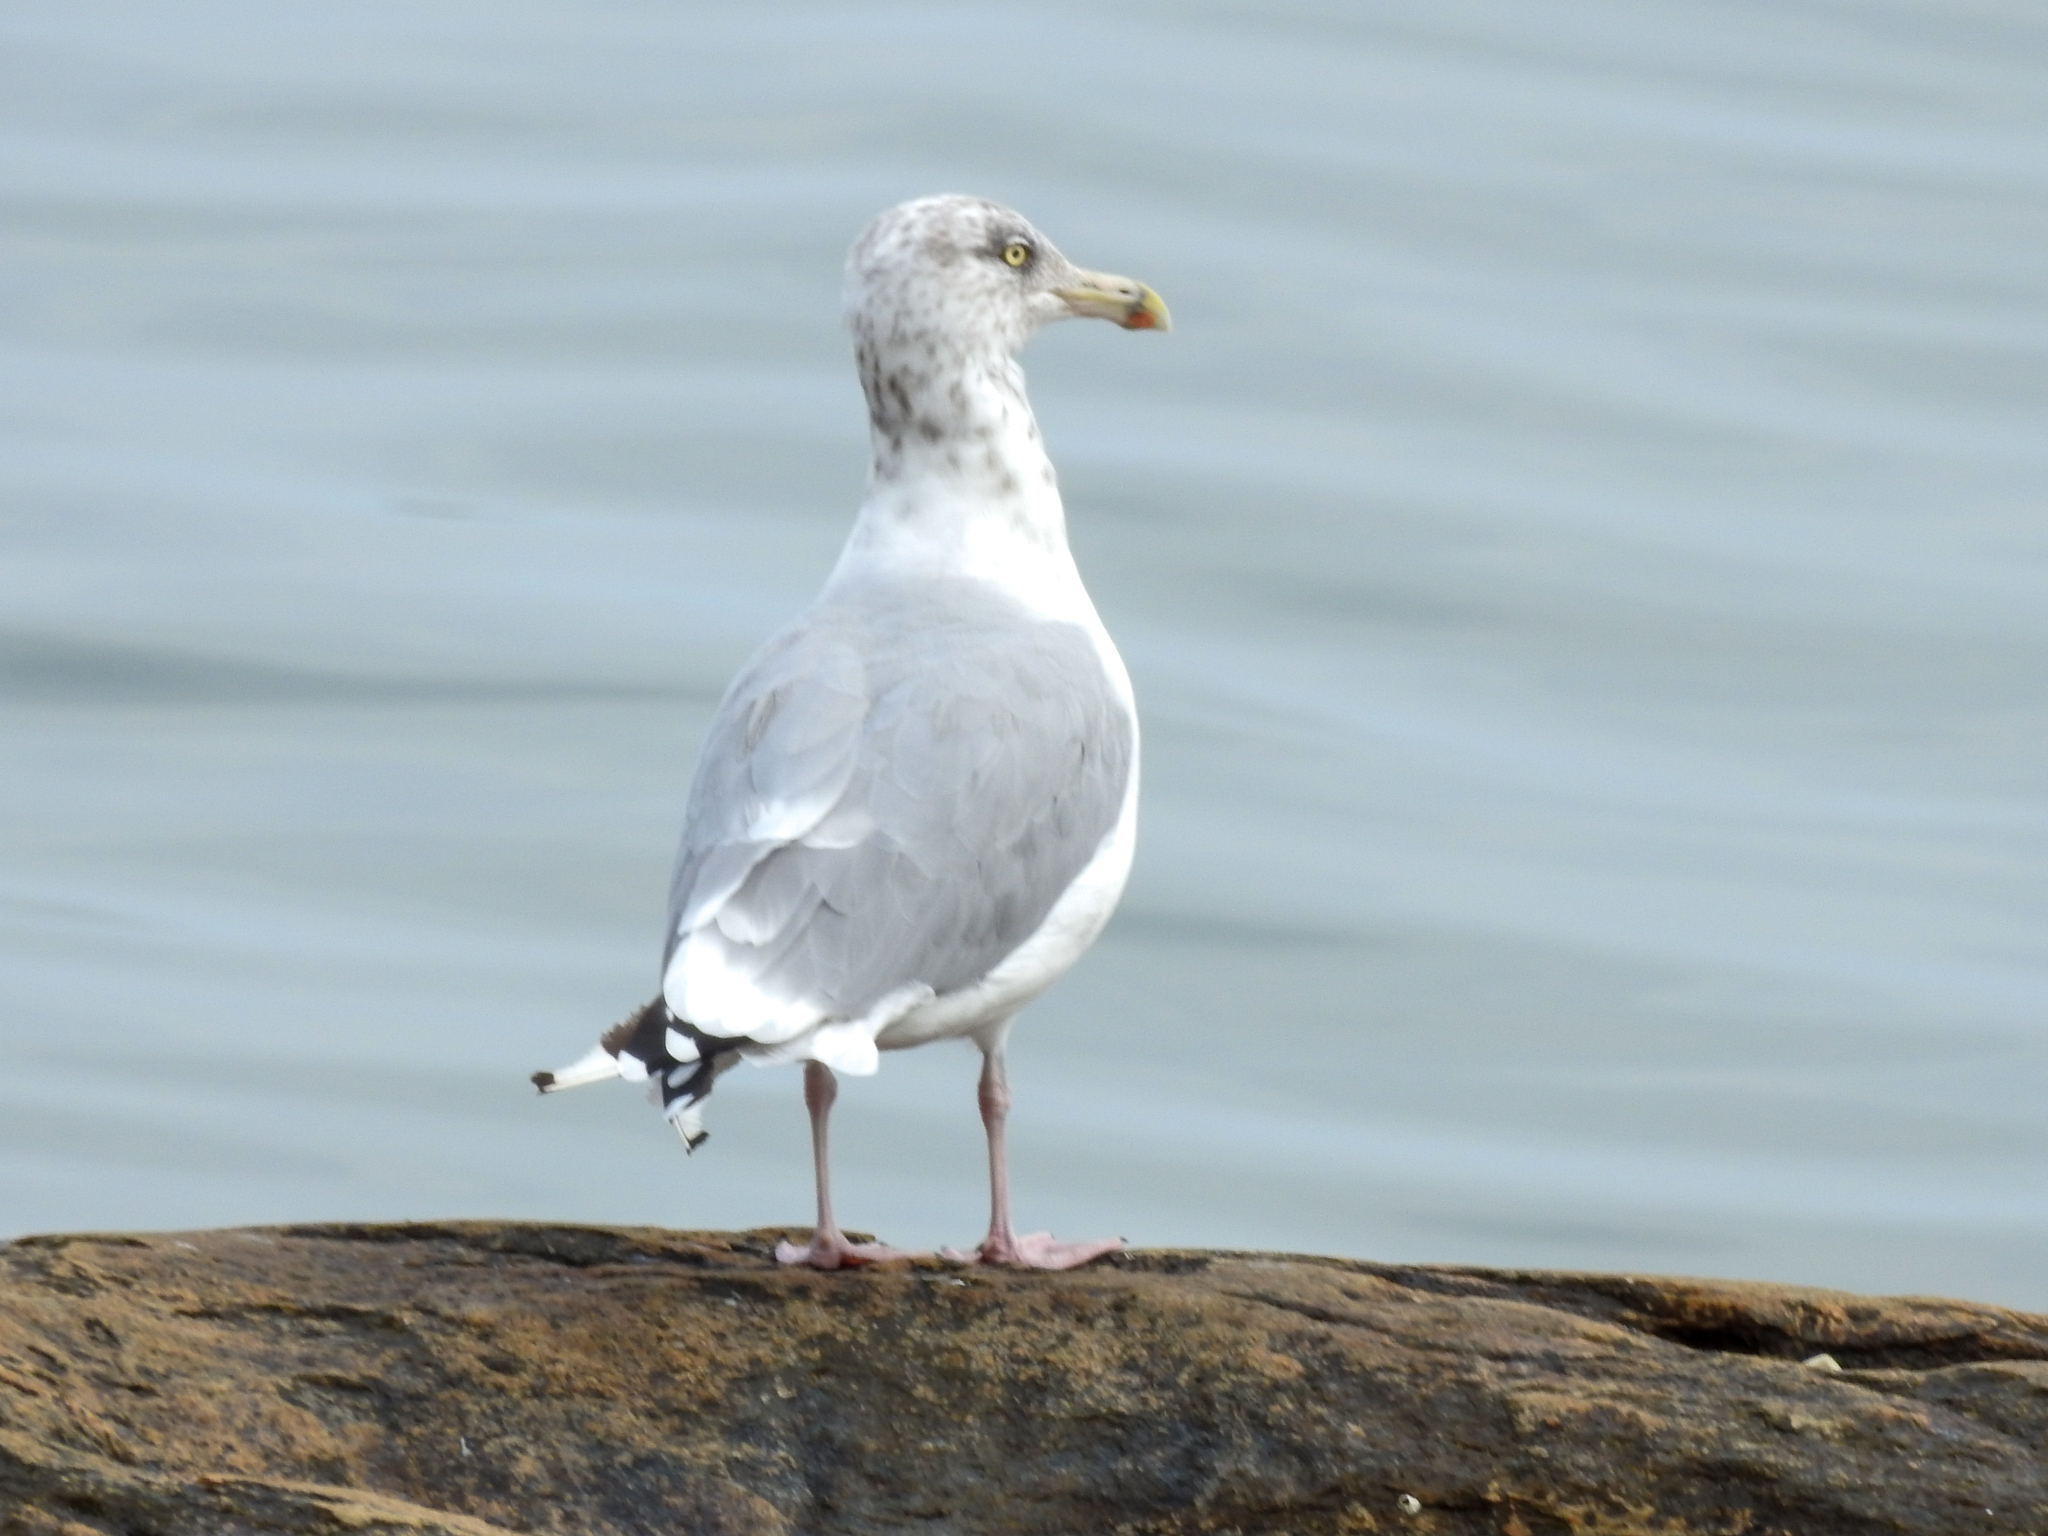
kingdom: Animalia
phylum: Chordata
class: Aves
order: Charadriiformes
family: Laridae
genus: Larus
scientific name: Larus argentatus
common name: Herring gull
